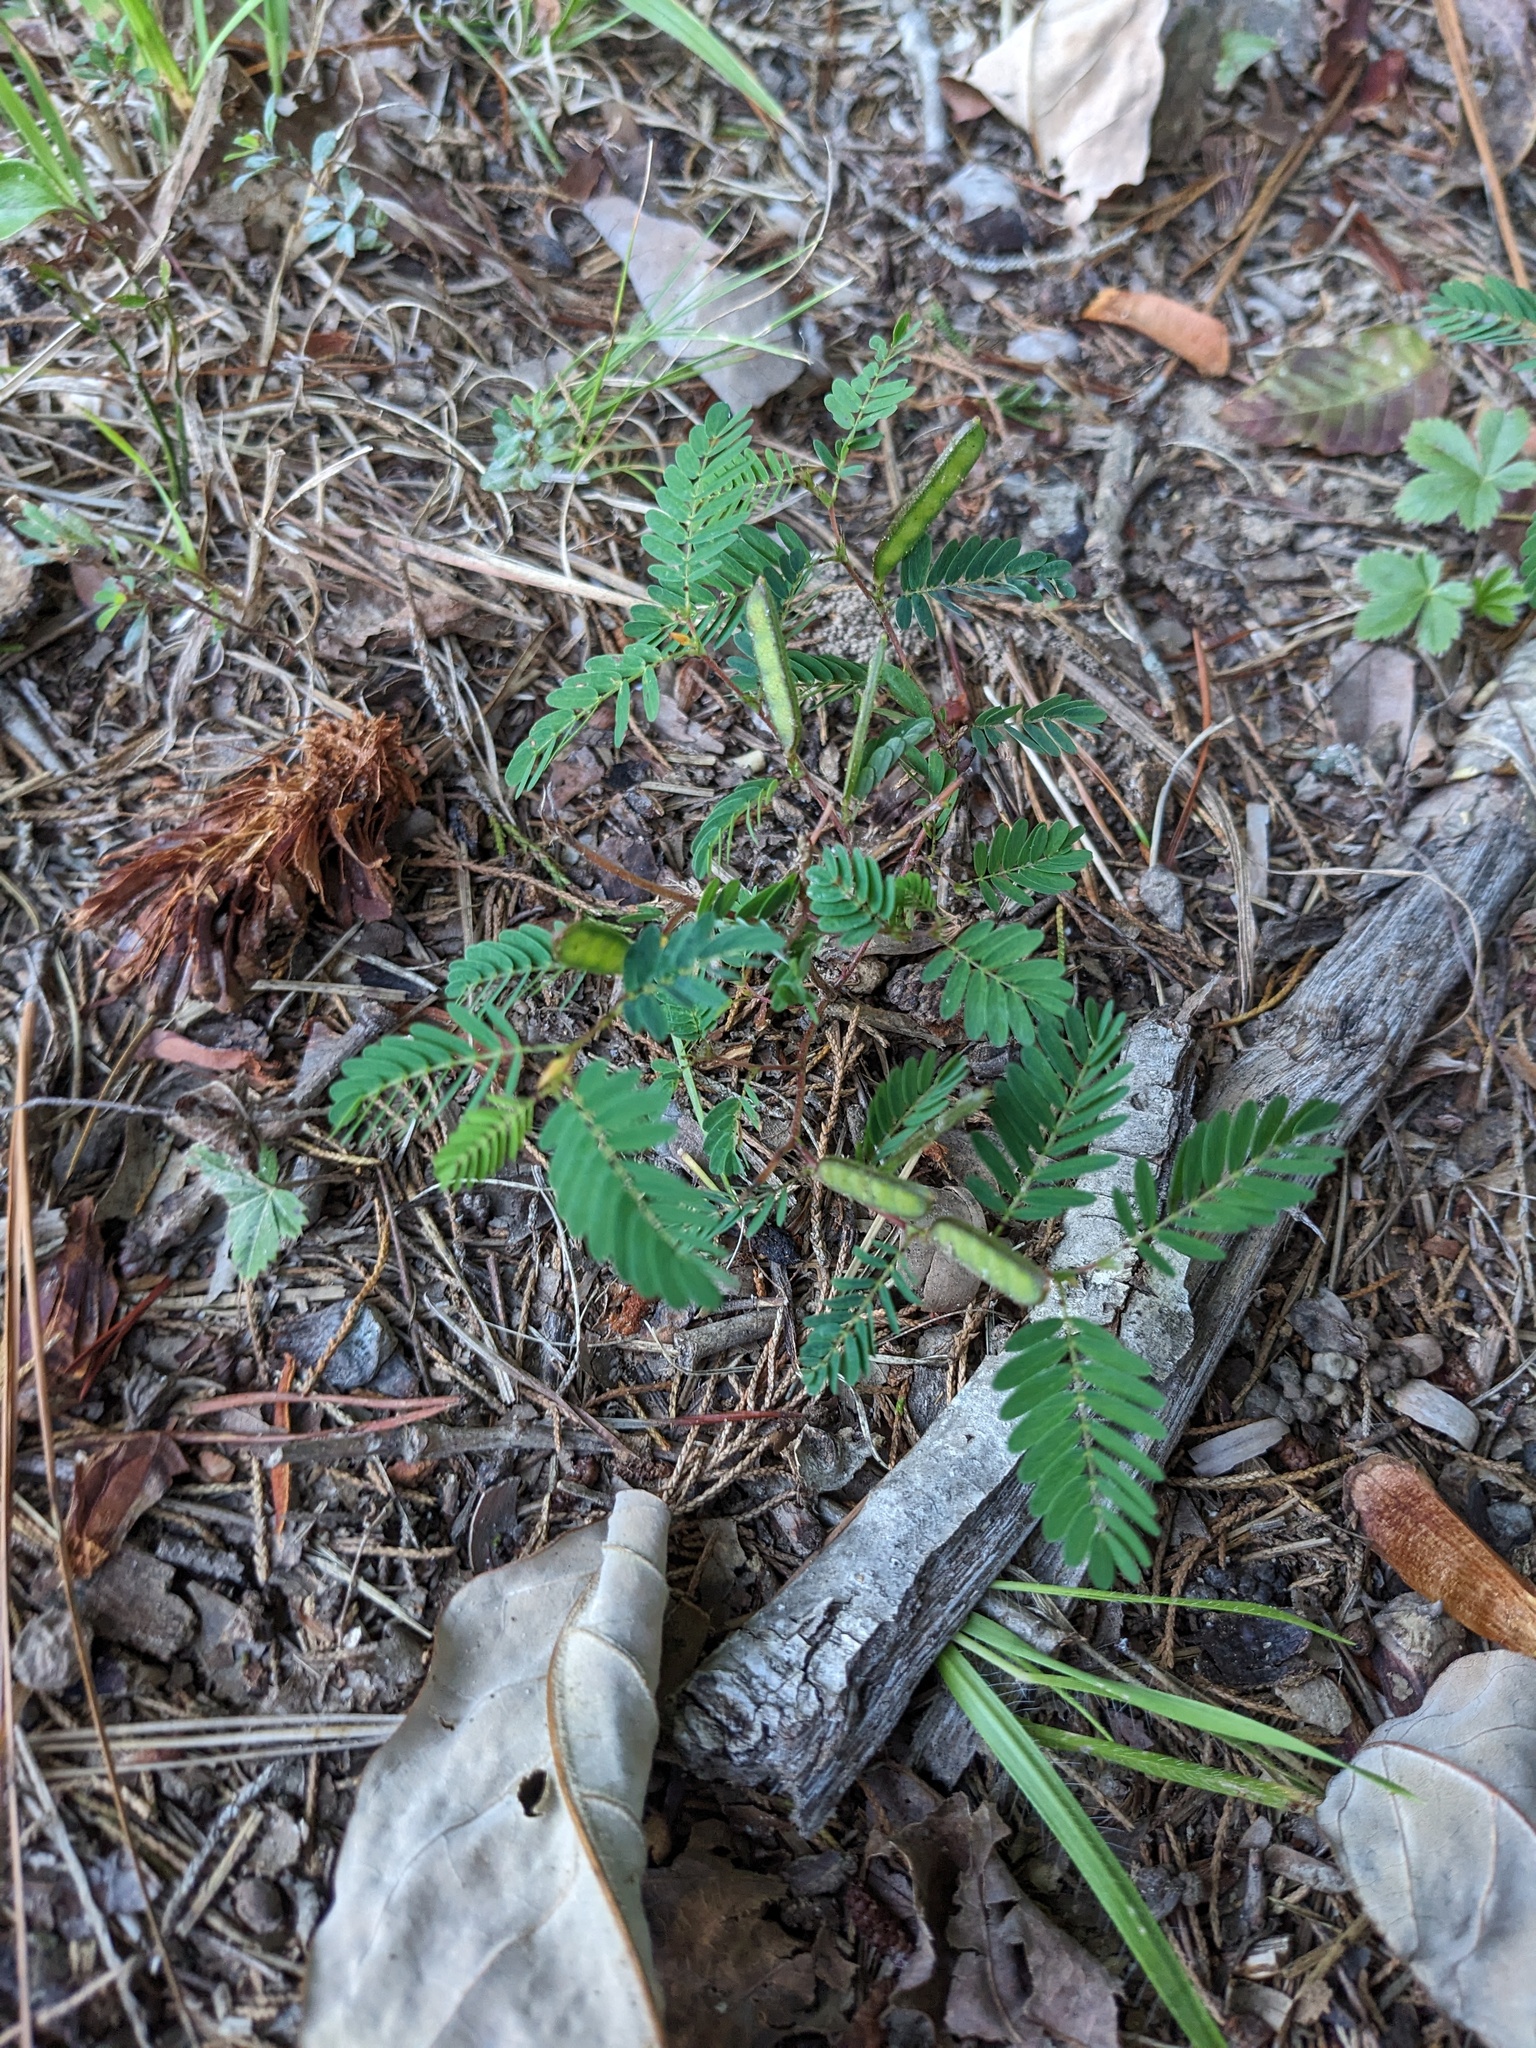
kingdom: Plantae
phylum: Tracheophyta
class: Magnoliopsida
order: Fabales
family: Fabaceae
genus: Chamaecrista
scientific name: Chamaecrista nictitans
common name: Sensitive cassia
